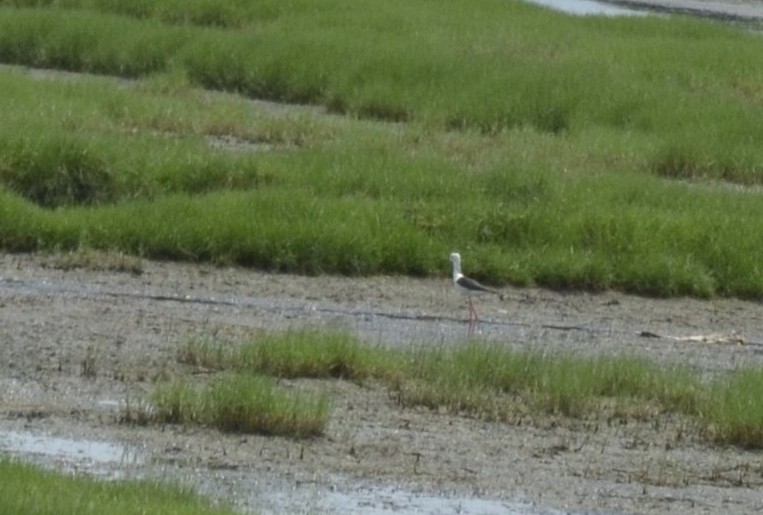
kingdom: Animalia
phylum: Chordata
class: Aves
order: Charadriiformes
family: Recurvirostridae
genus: Himantopus
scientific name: Himantopus himantopus
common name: Black-winged stilt
